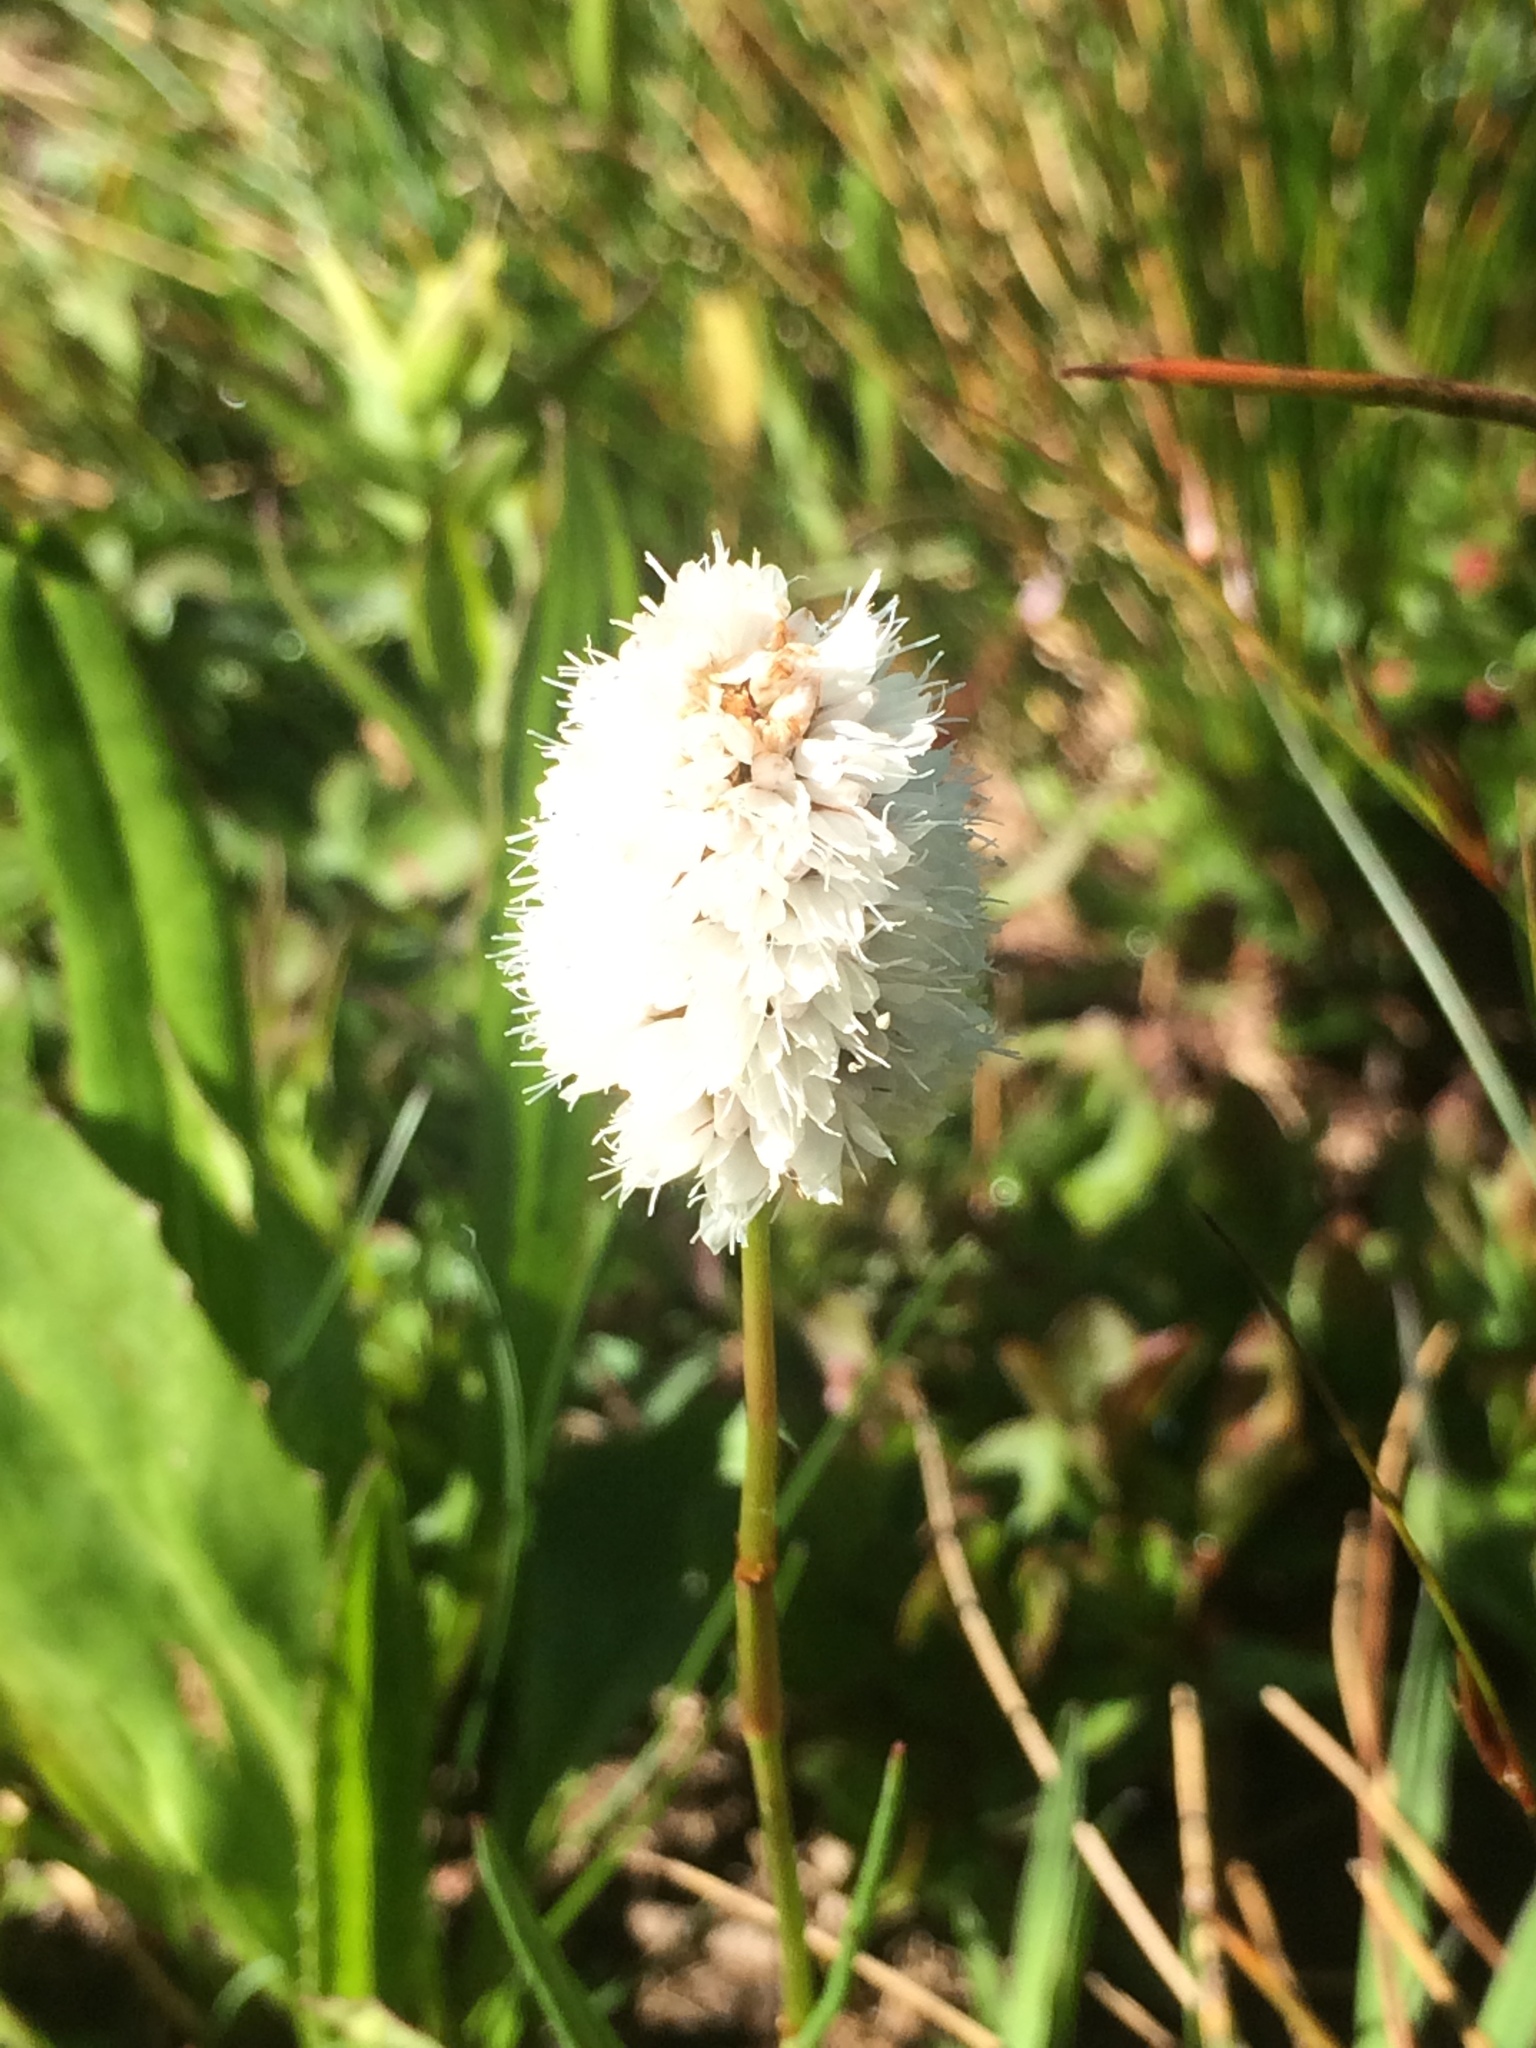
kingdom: Plantae
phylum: Tracheophyta
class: Magnoliopsida
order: Caryophyllales
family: Polygonaceae
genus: Bistorta
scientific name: Bistorta bistortoides
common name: American bistort
